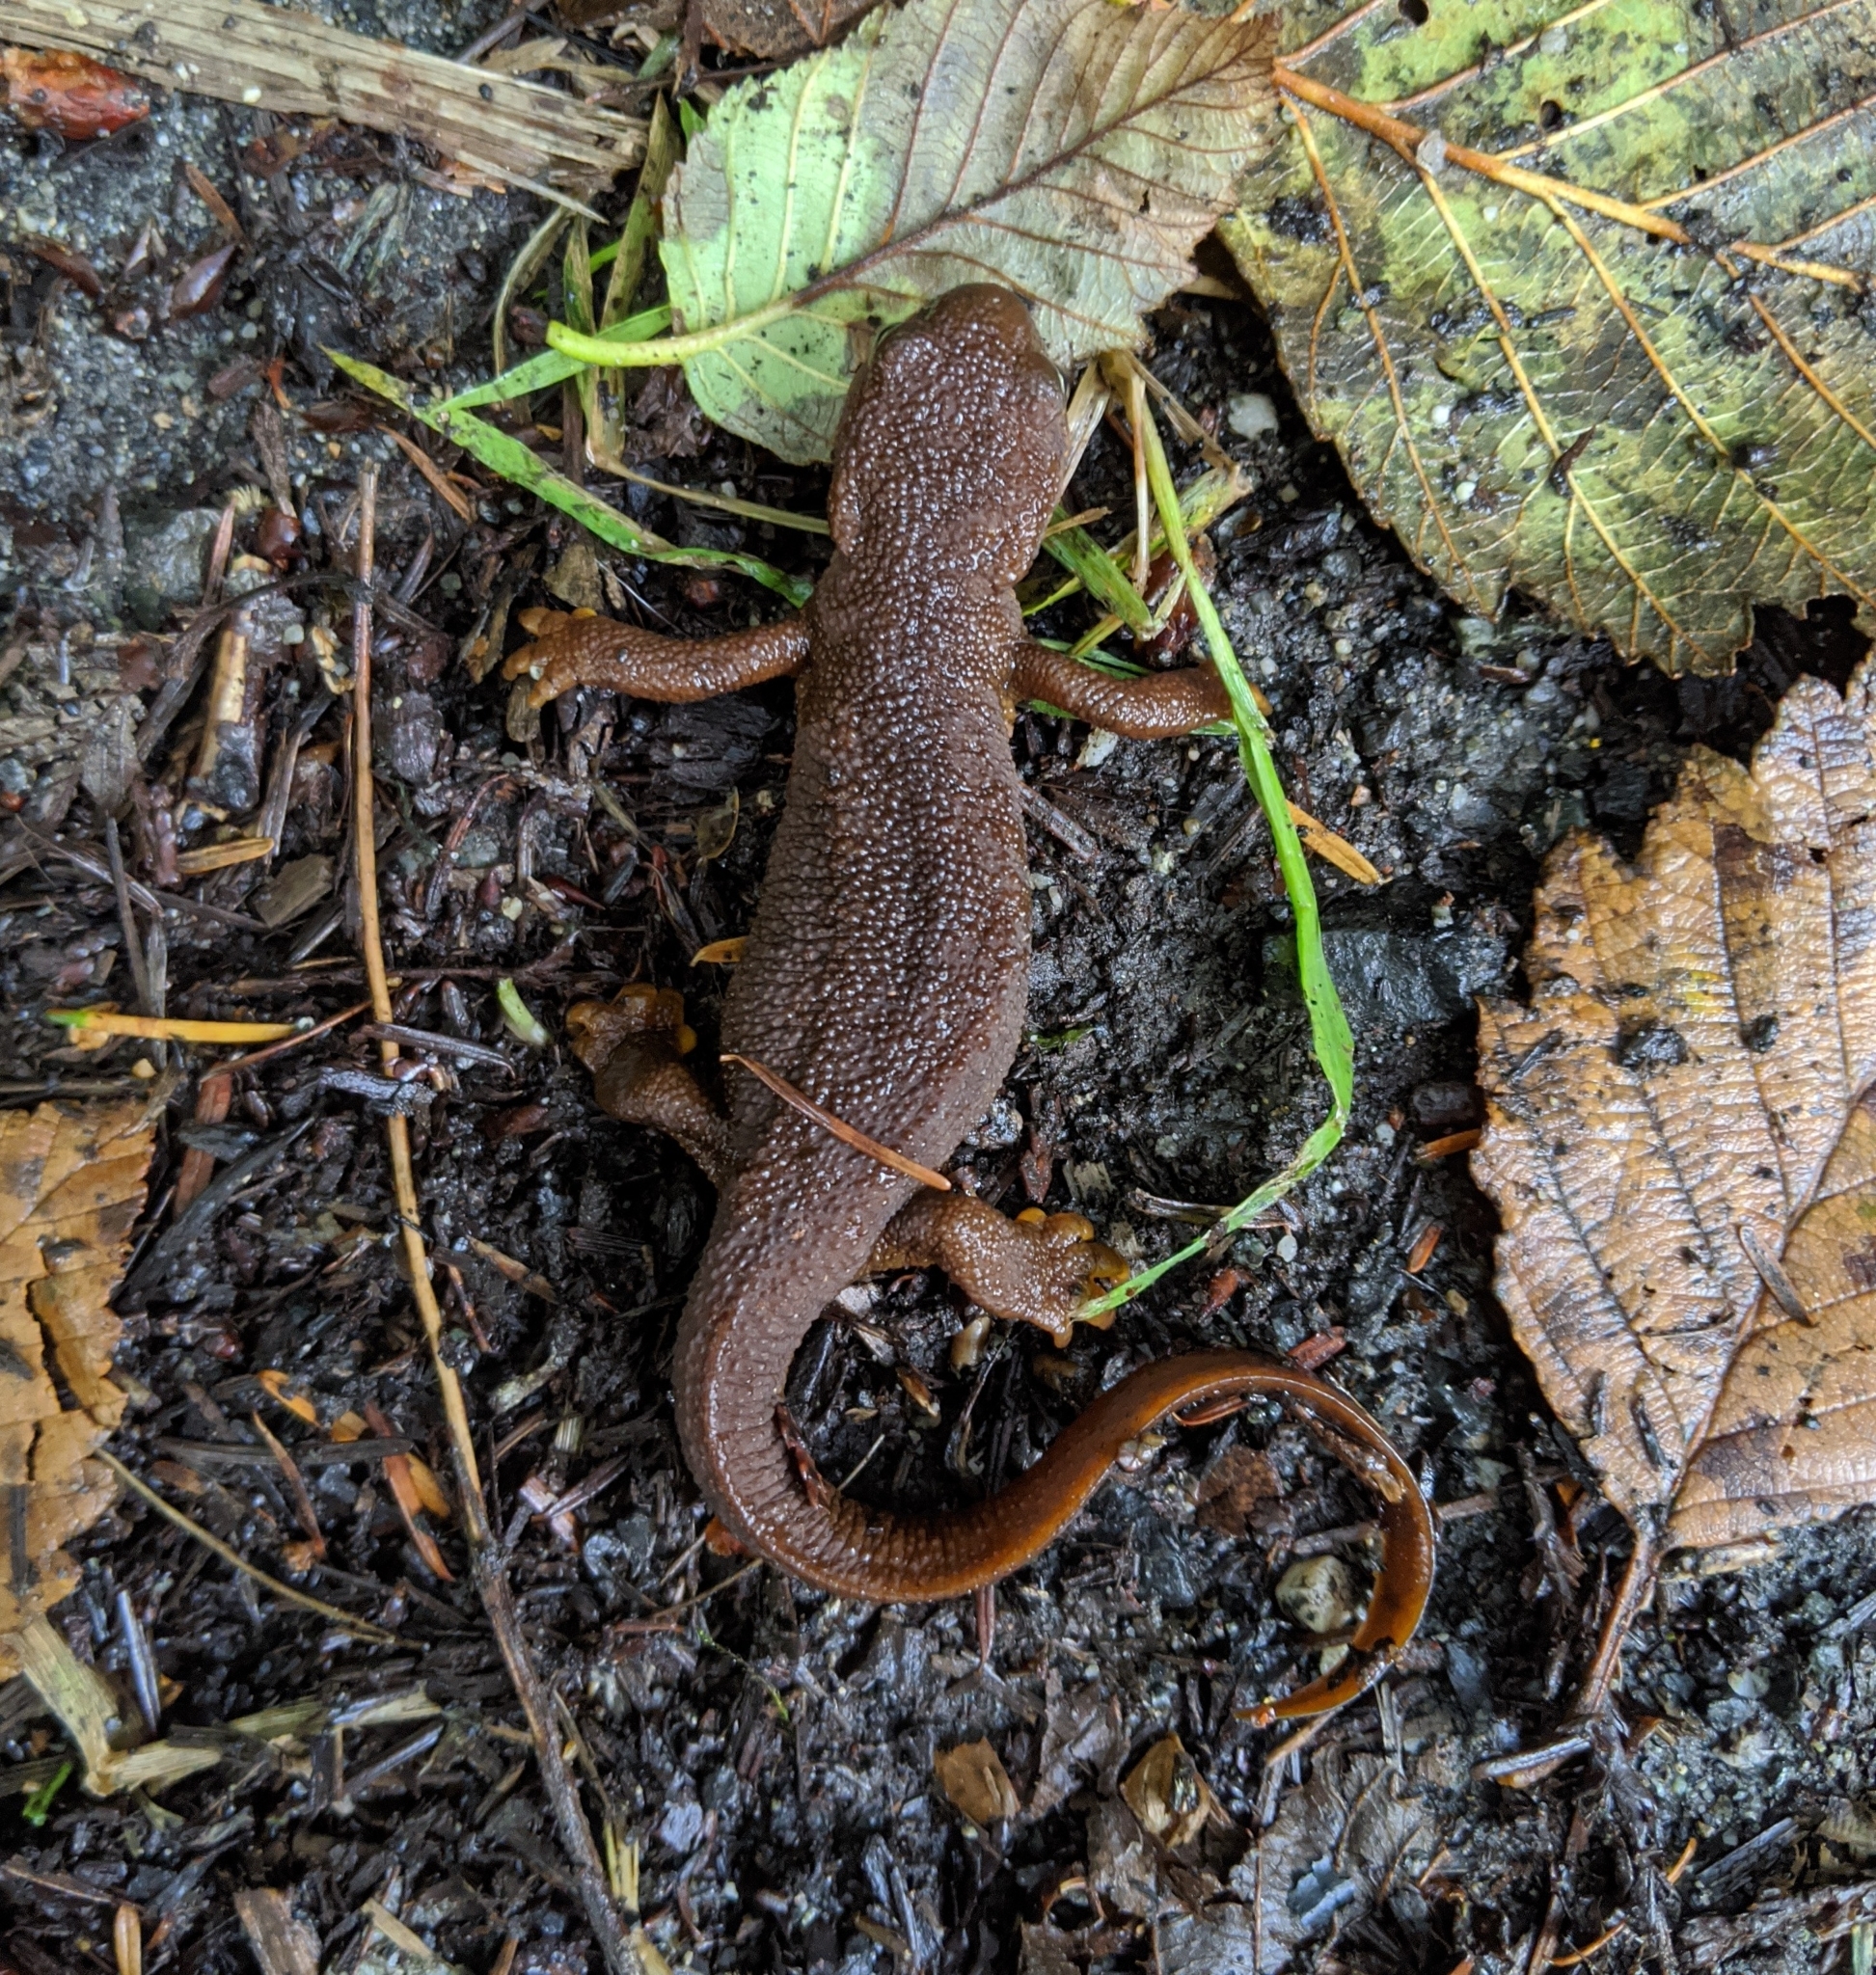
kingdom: Animalia
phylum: Chordata
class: Amphibia
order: Caudata
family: Salamandridae
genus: Taricha
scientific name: Taricha granulosa
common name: Roughskin newt
